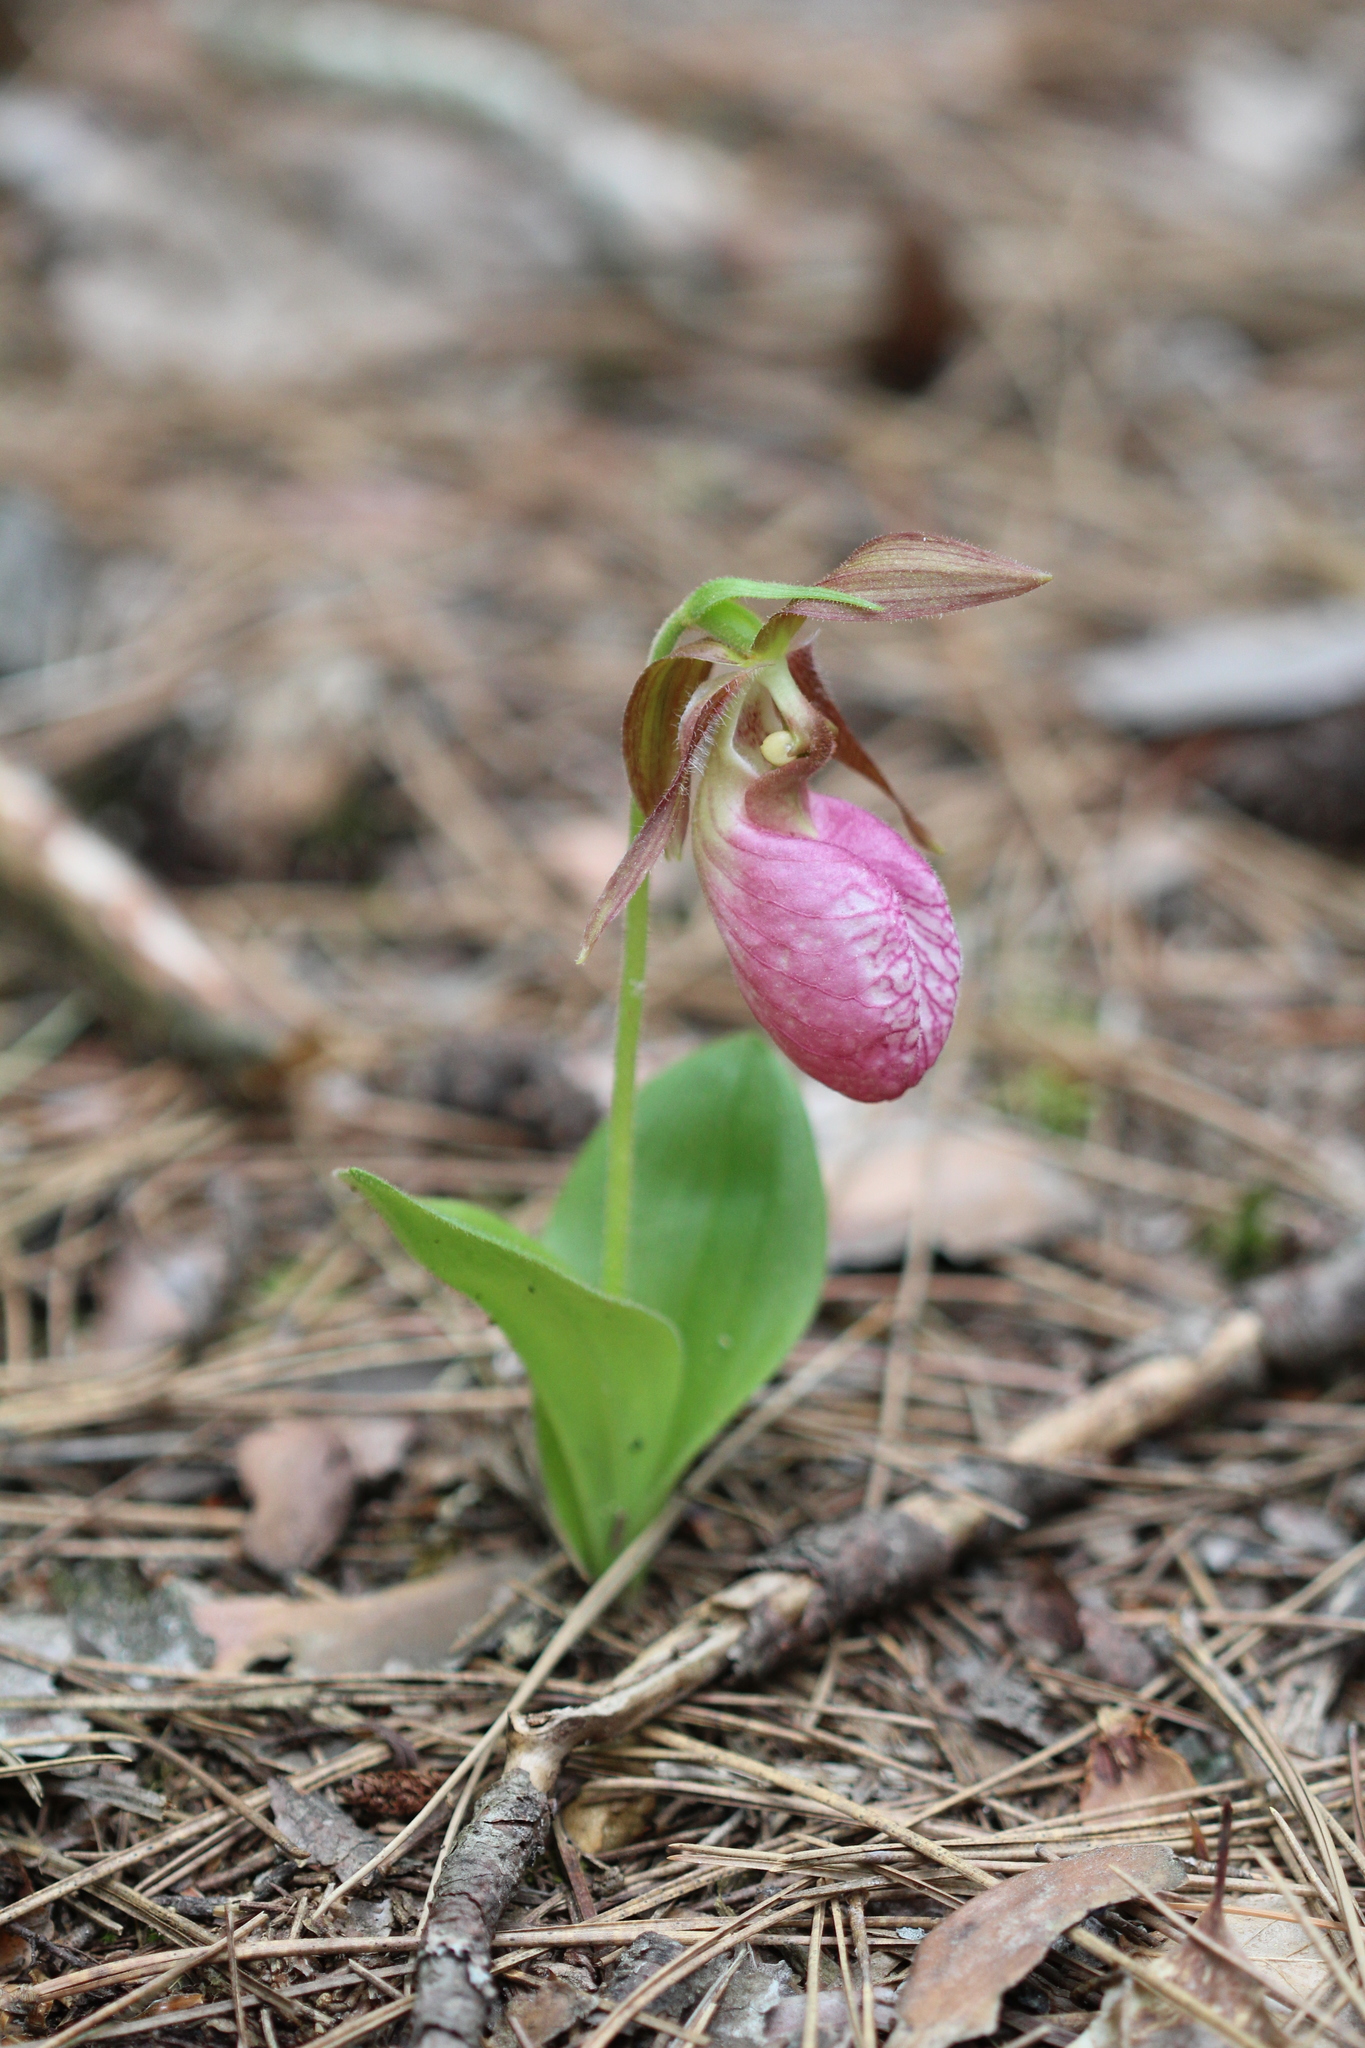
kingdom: Plantae
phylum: Tracheophyta
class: Liliopsida
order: Asparagales
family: Orchidaceae
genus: Cypripedium
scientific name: Cypripedium acaule
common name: Pink lady's-slipper
